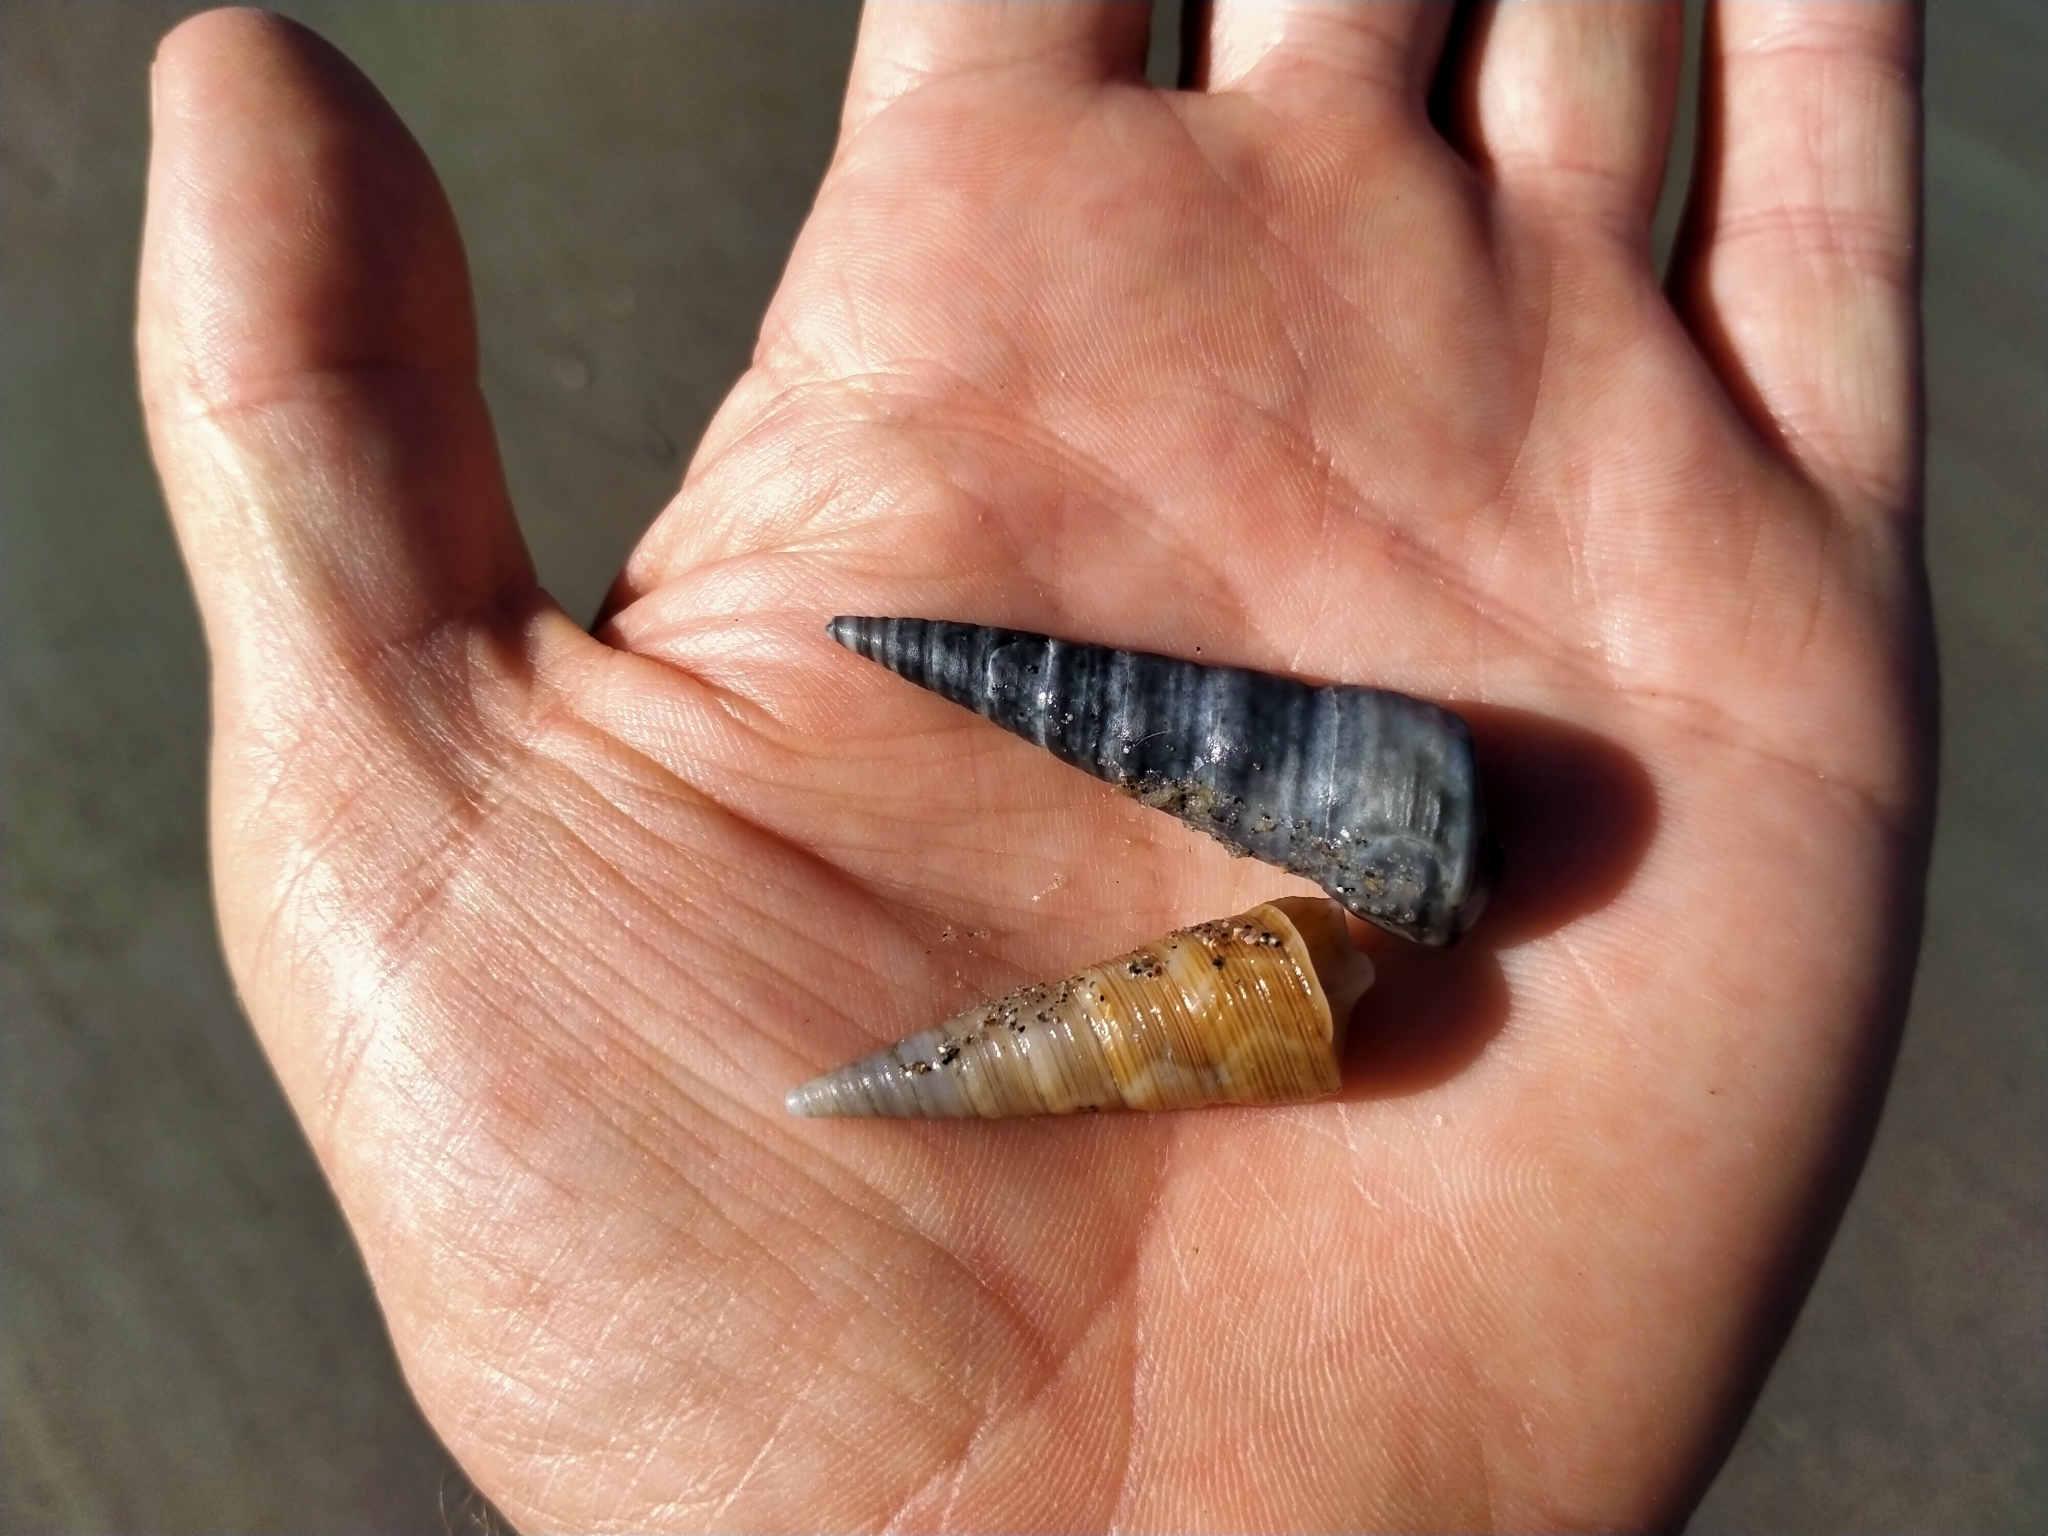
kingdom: Animalia
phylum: Mollusca
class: Gastropoda
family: Turritellidae
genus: Maoricolpus
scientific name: Maoricolpus roseus
